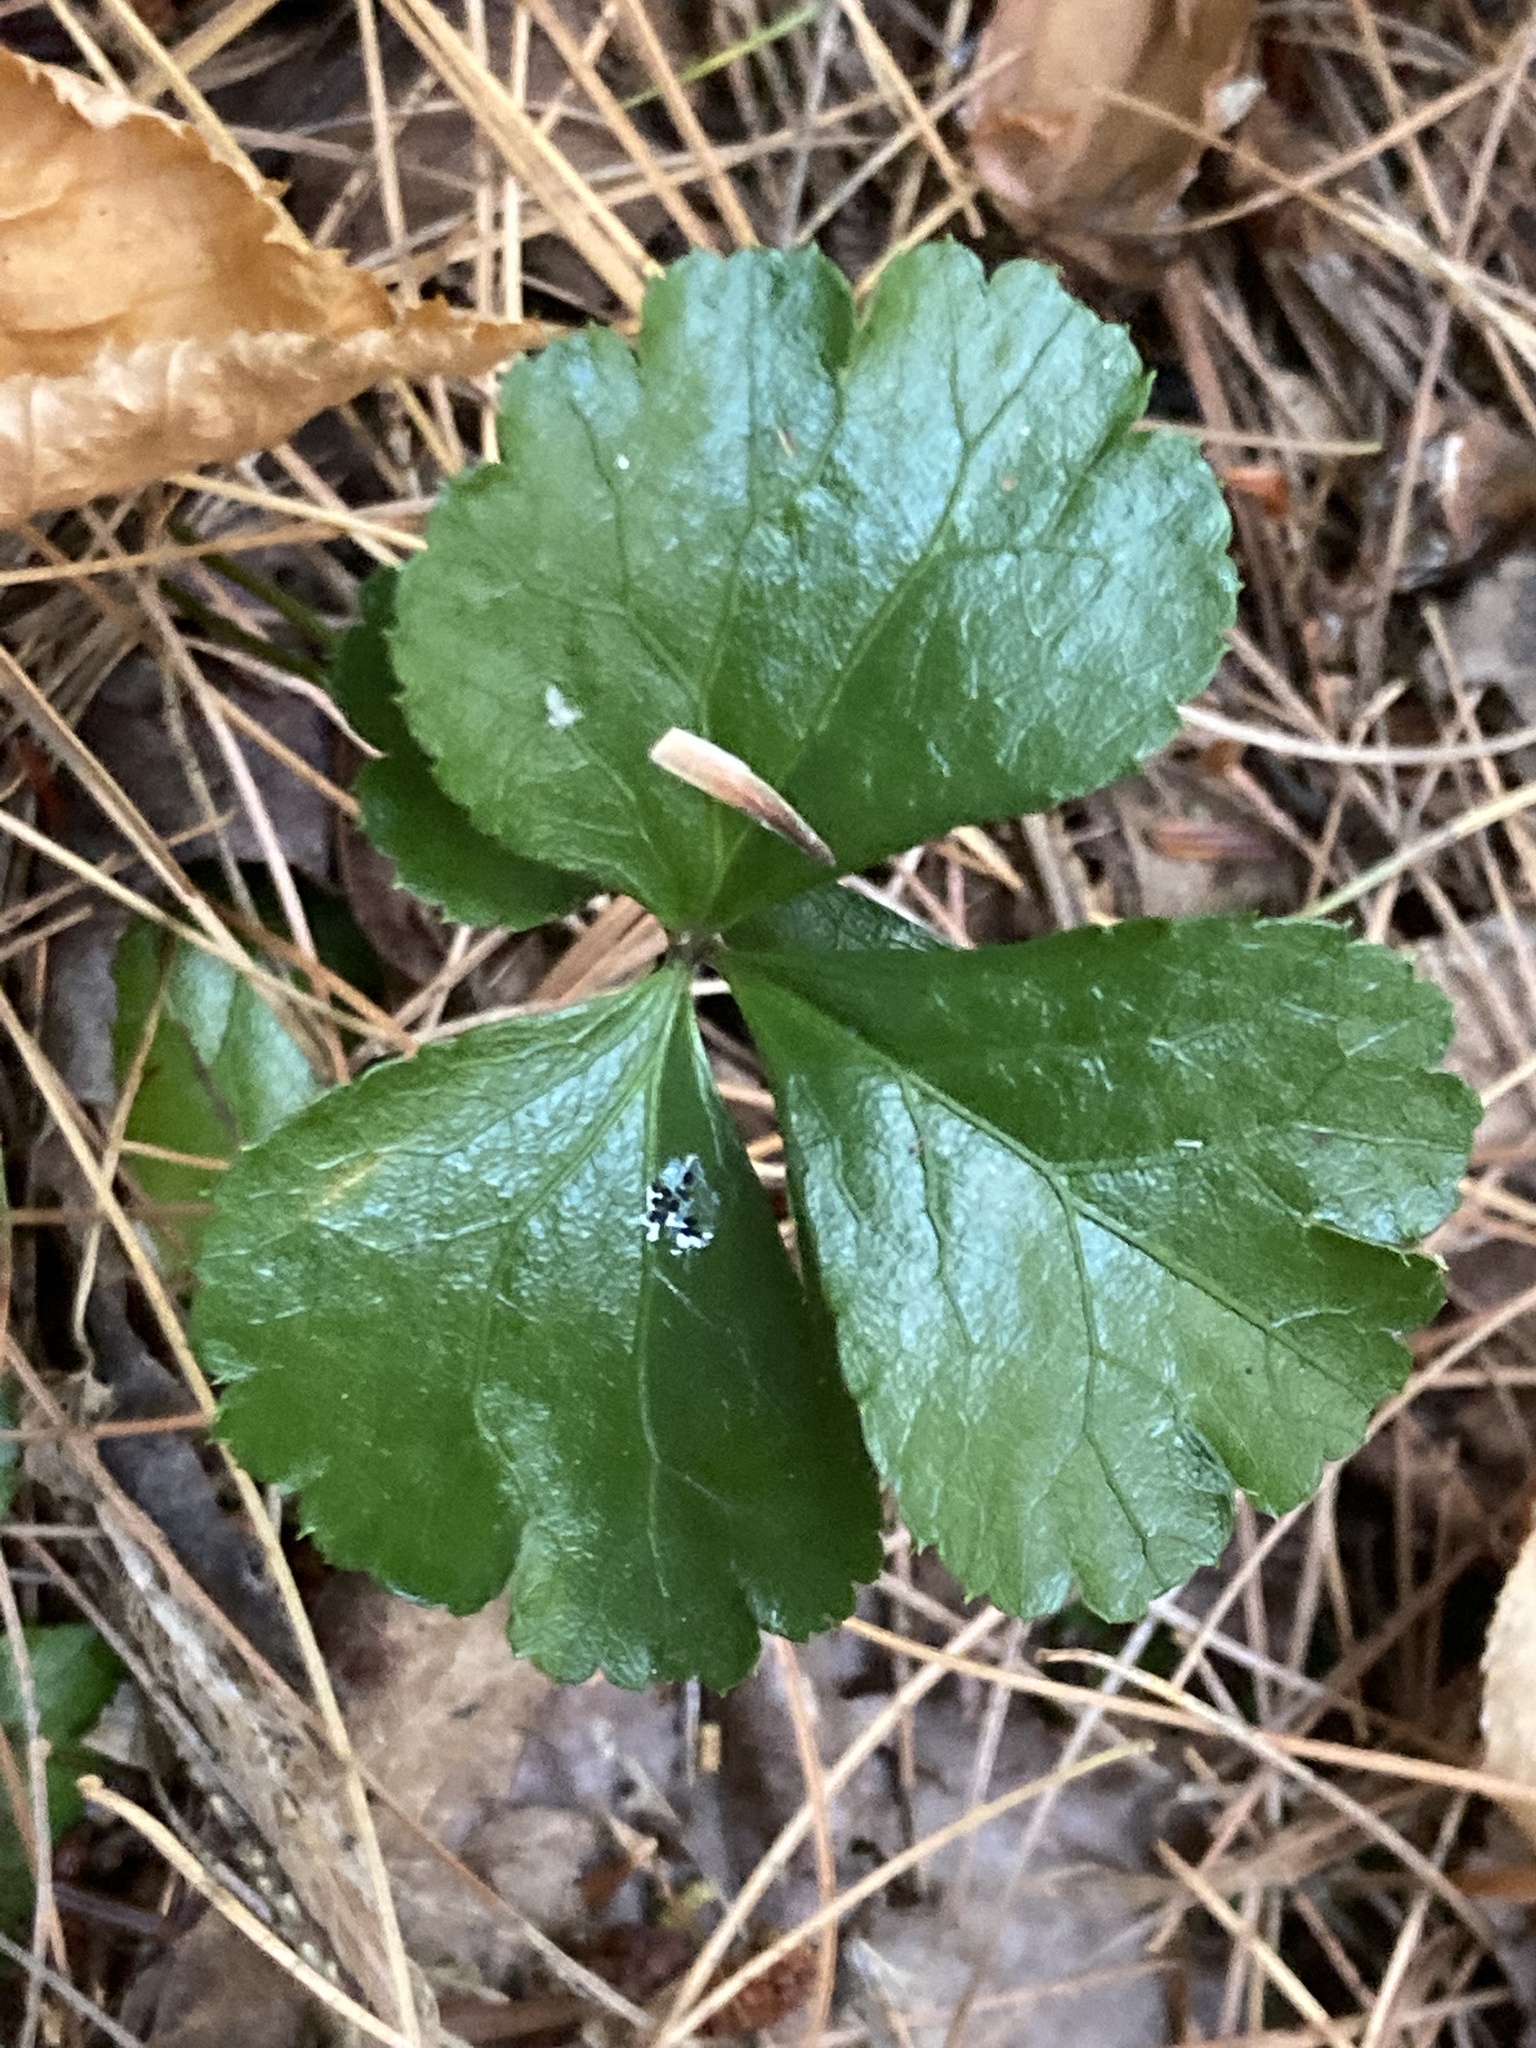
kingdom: Plantae
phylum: Tracheophyta
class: Magnoliopsida
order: Ranunculales
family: Ranunculaceae
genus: Coptis
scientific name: Coptis trifolia
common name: Canker-root
